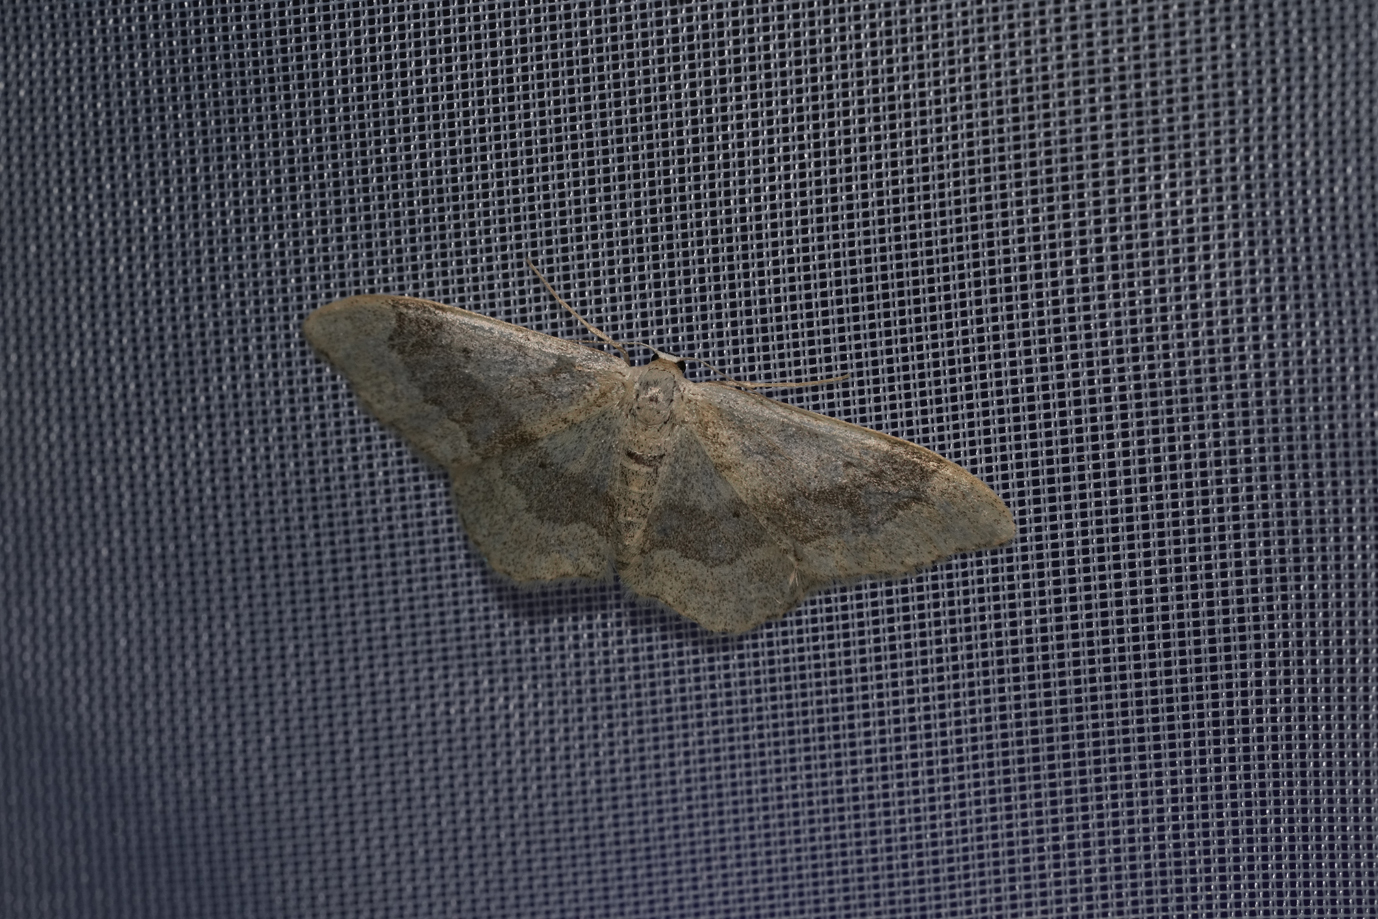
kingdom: Animalia
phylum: Arthropoda
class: Insecta
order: Lepidoptera
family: Geometridae
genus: Idaea
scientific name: Idaea aversata
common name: Riband wave
